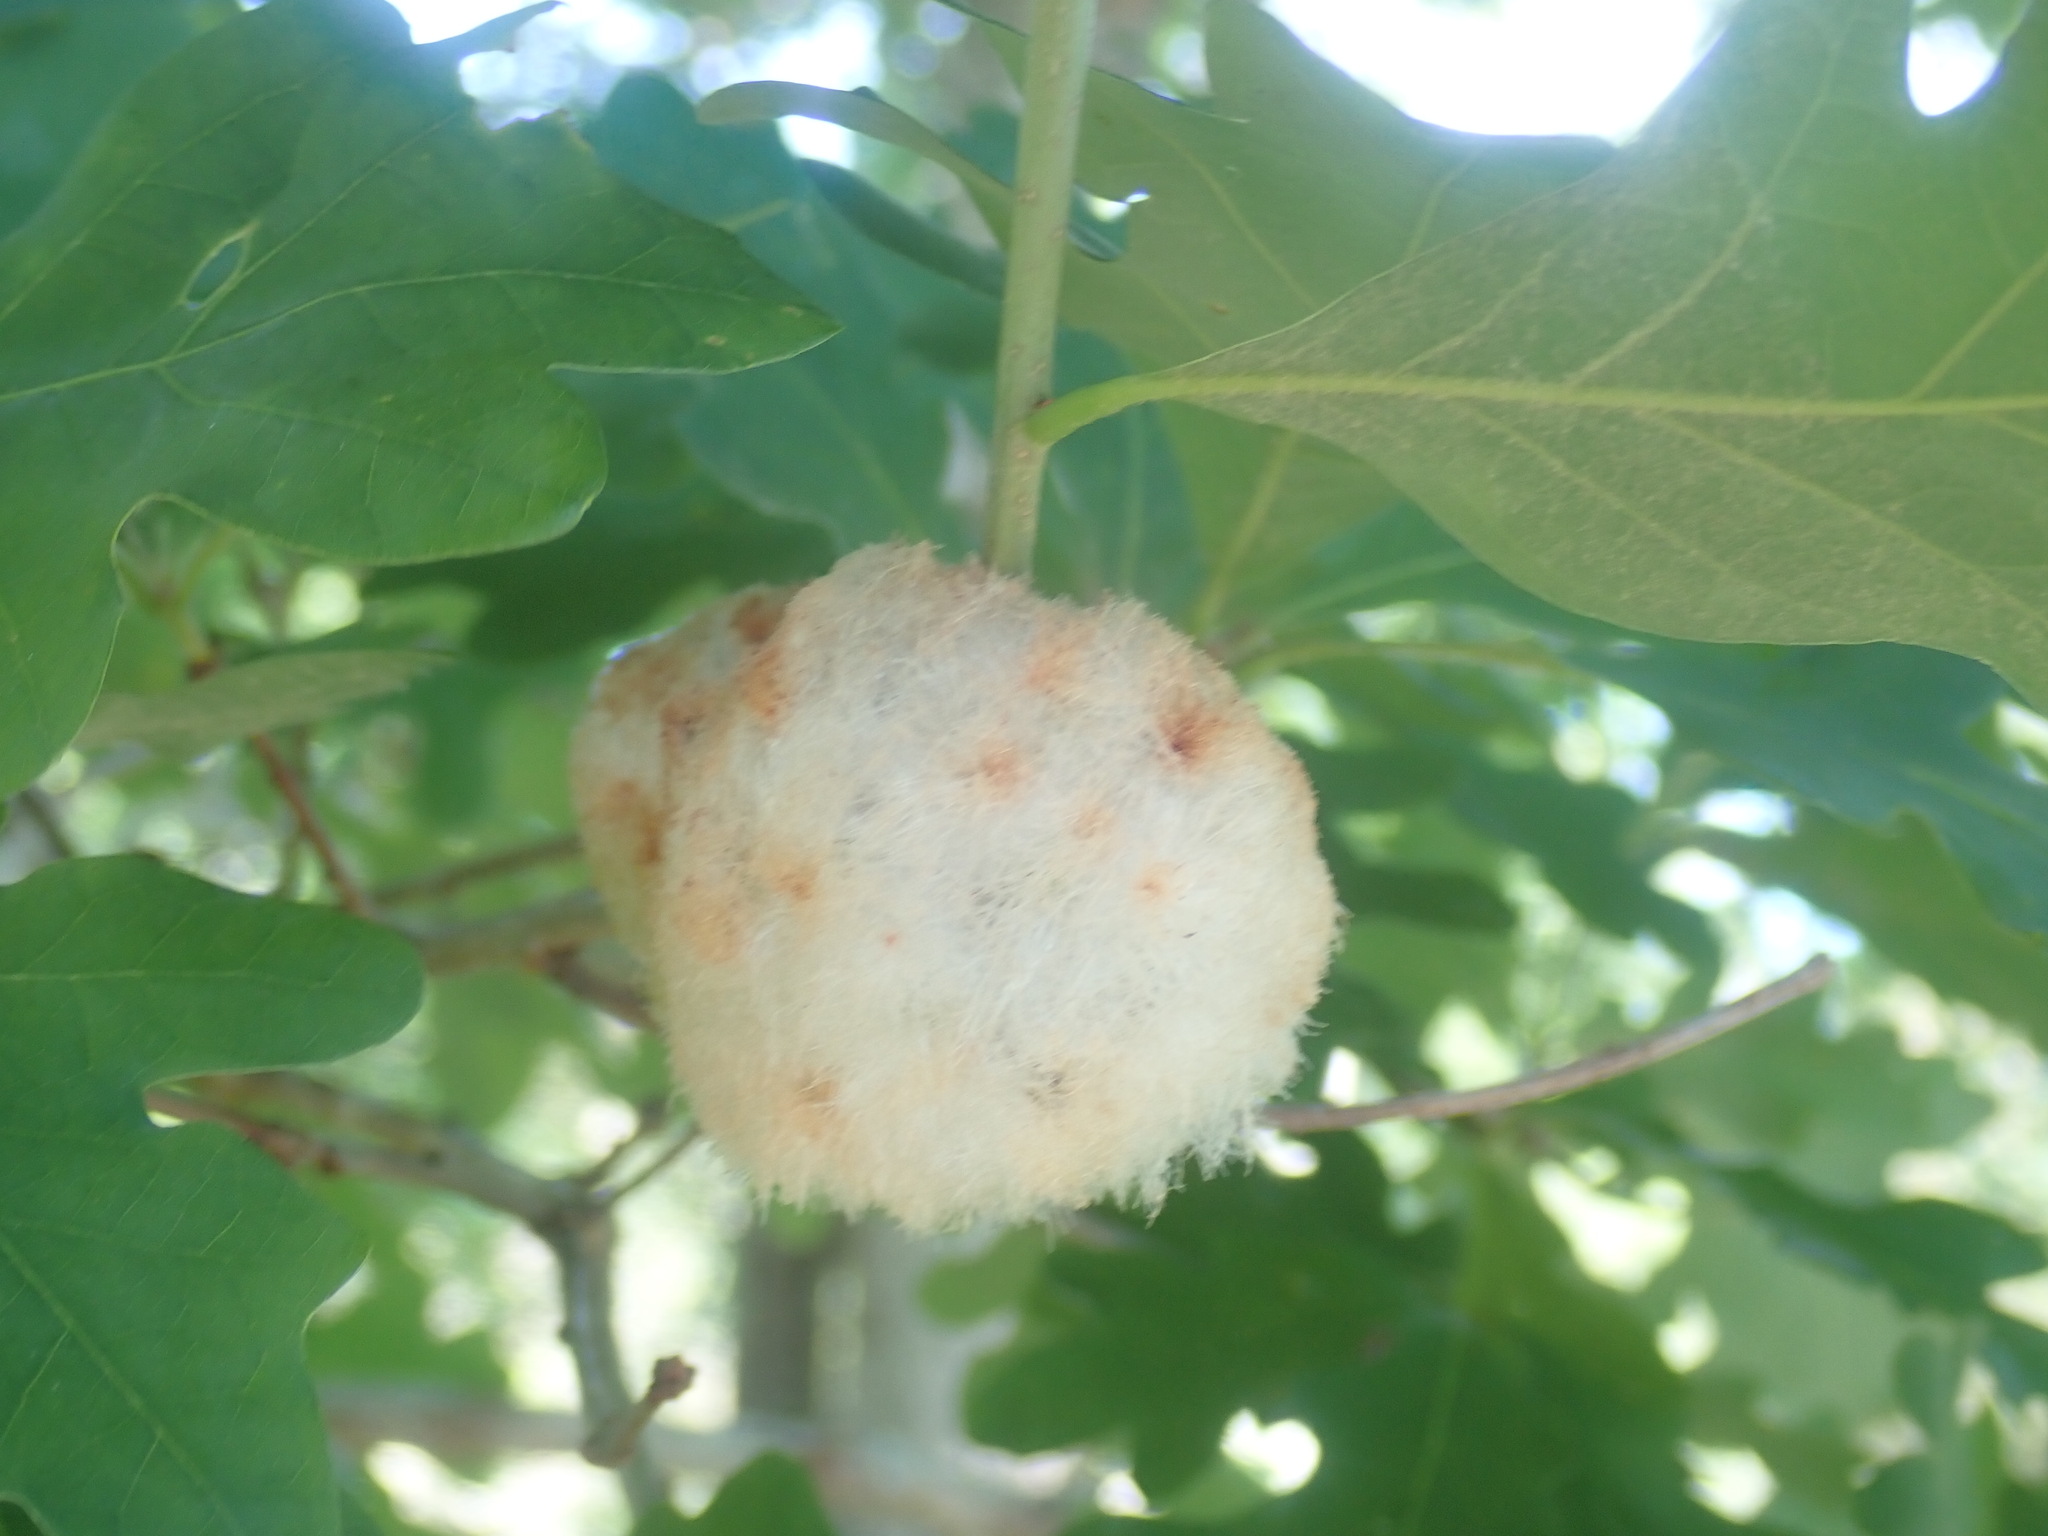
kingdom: Animalia
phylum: Arthropoda
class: Insecta
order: Hymenoptera
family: Cynipidae
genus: Callirhytis
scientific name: Callirhytis
